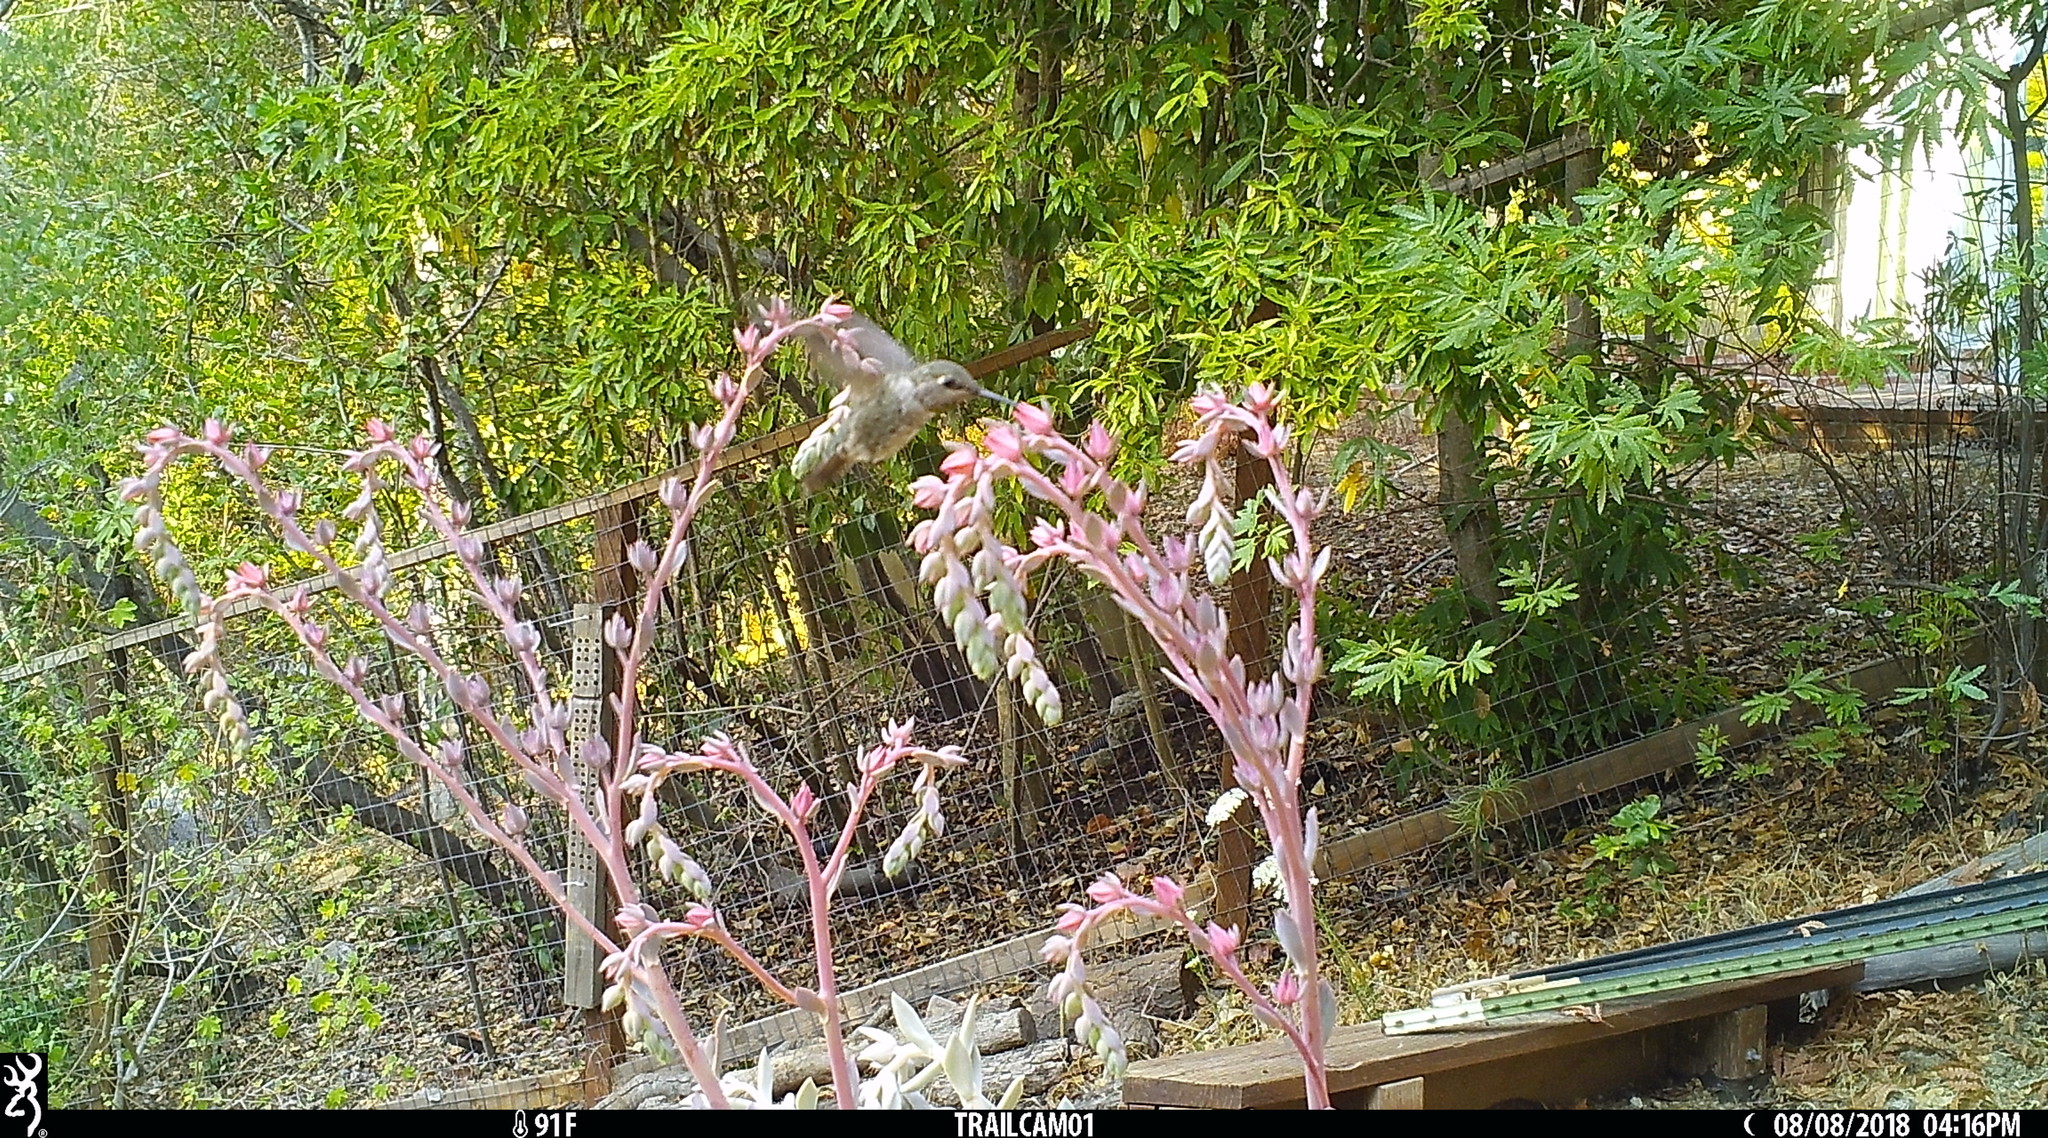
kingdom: Animalia
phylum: Chordata
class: Aves
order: Apodiformes
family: Trochilidae
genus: Calypte
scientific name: Calypte anna
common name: Anna's hummingbird
